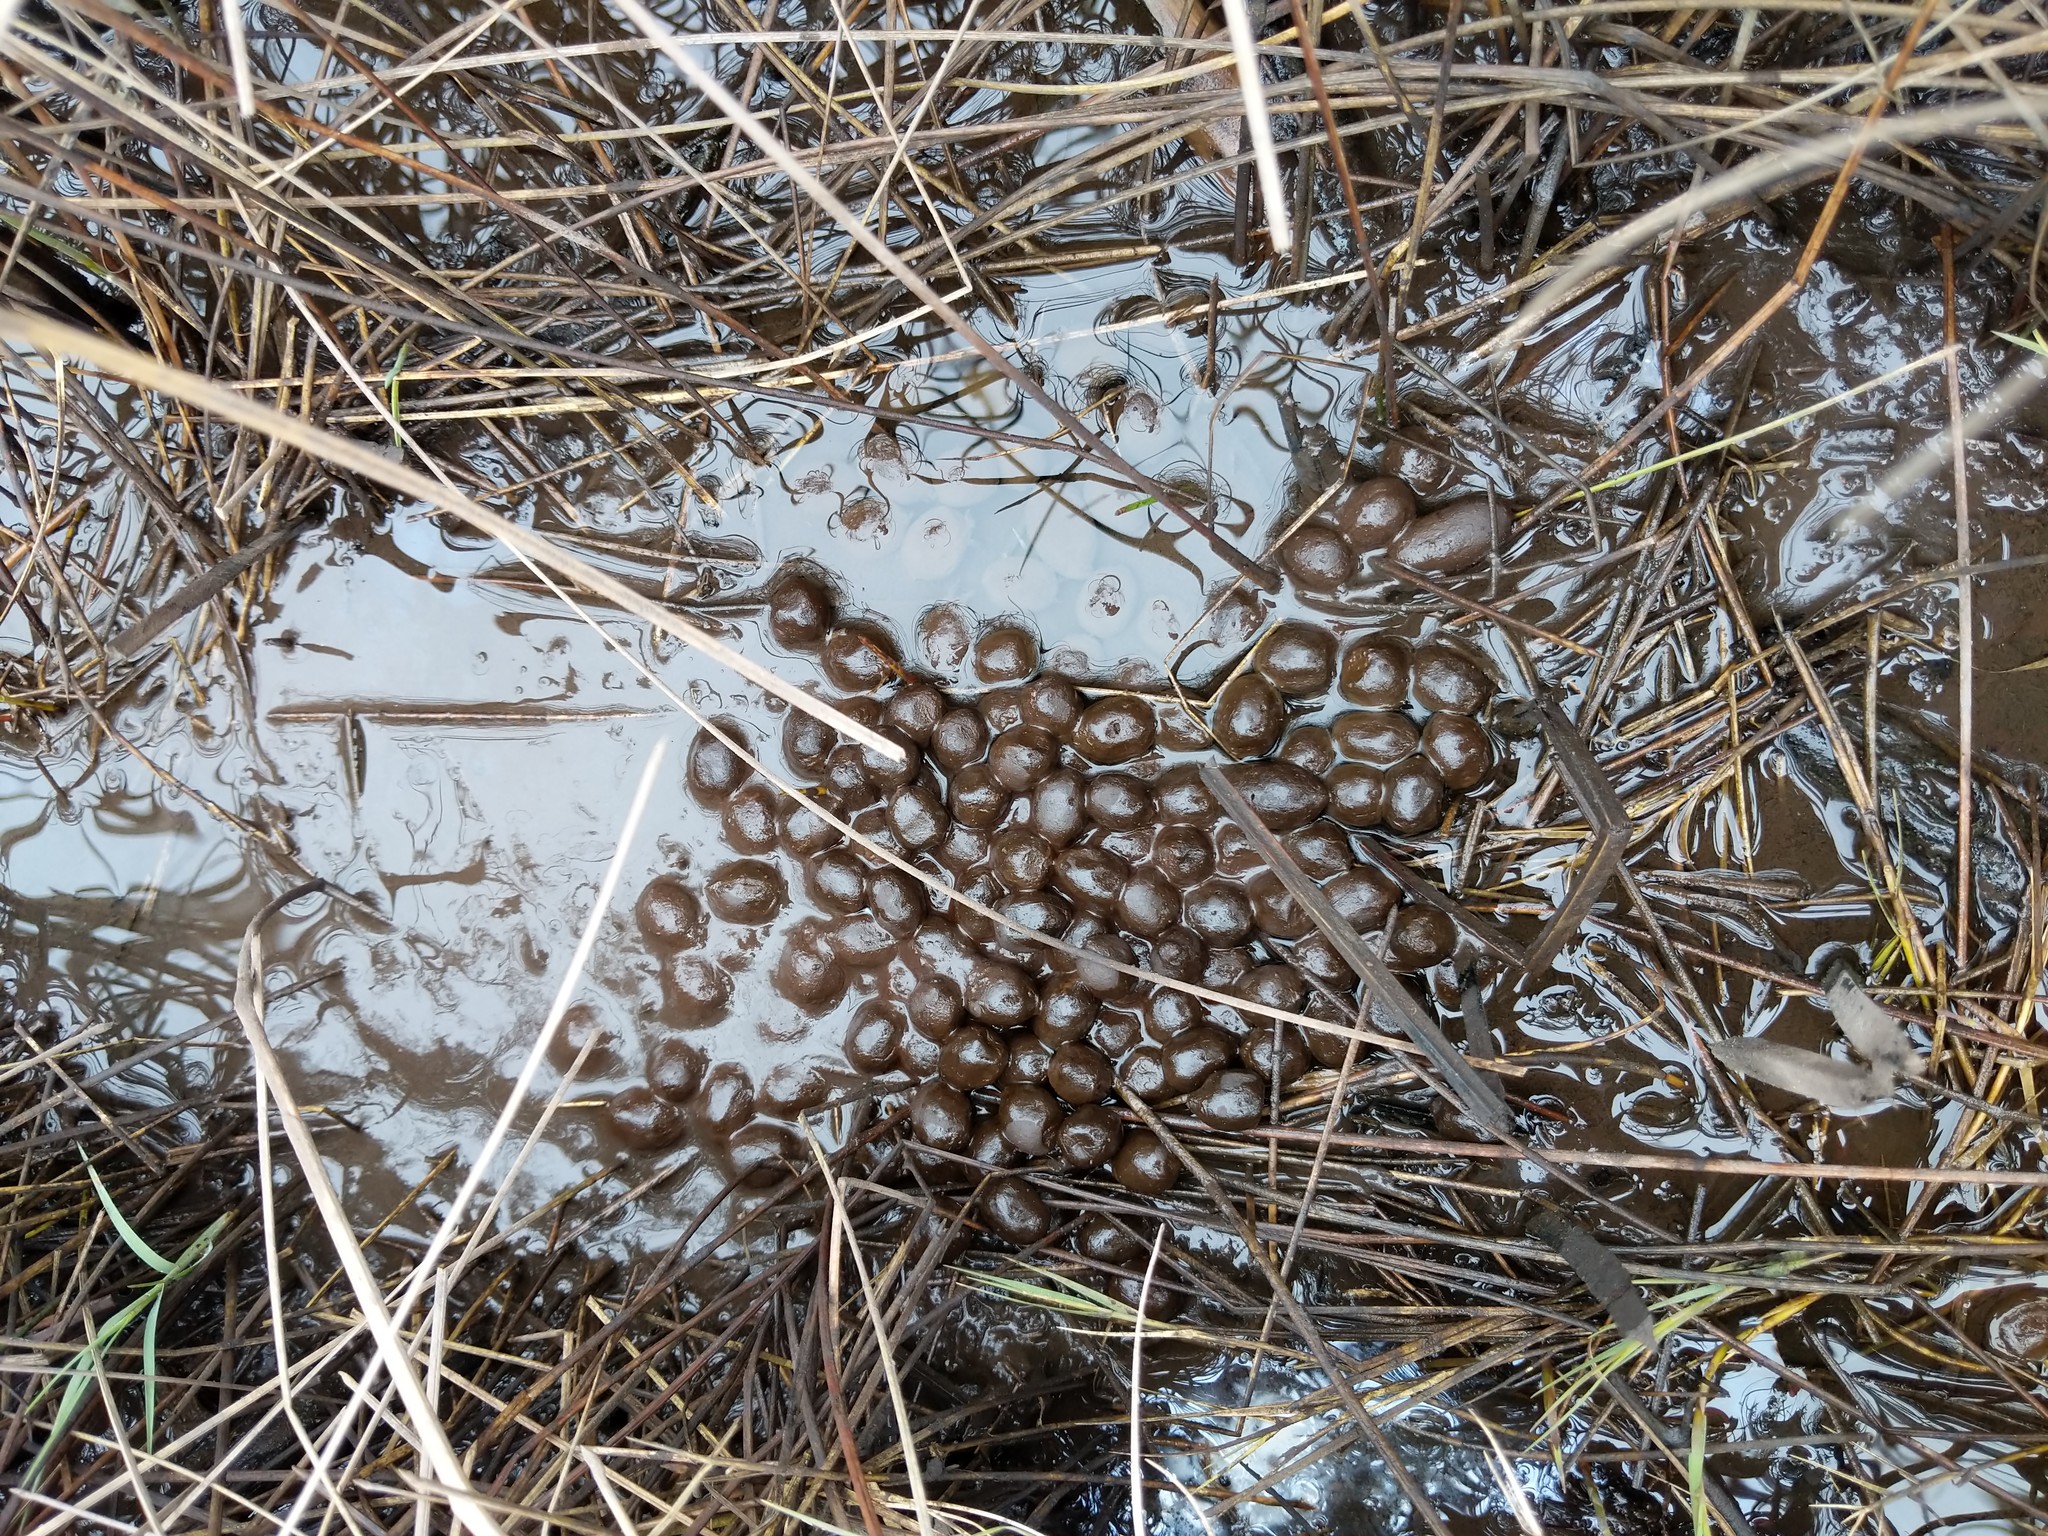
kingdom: Animalia
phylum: Chordata
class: Mammalia
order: Artiodactyla
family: Cervidae
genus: Odocoileus
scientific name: Odocoileus virginianus
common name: White-tailed deer
